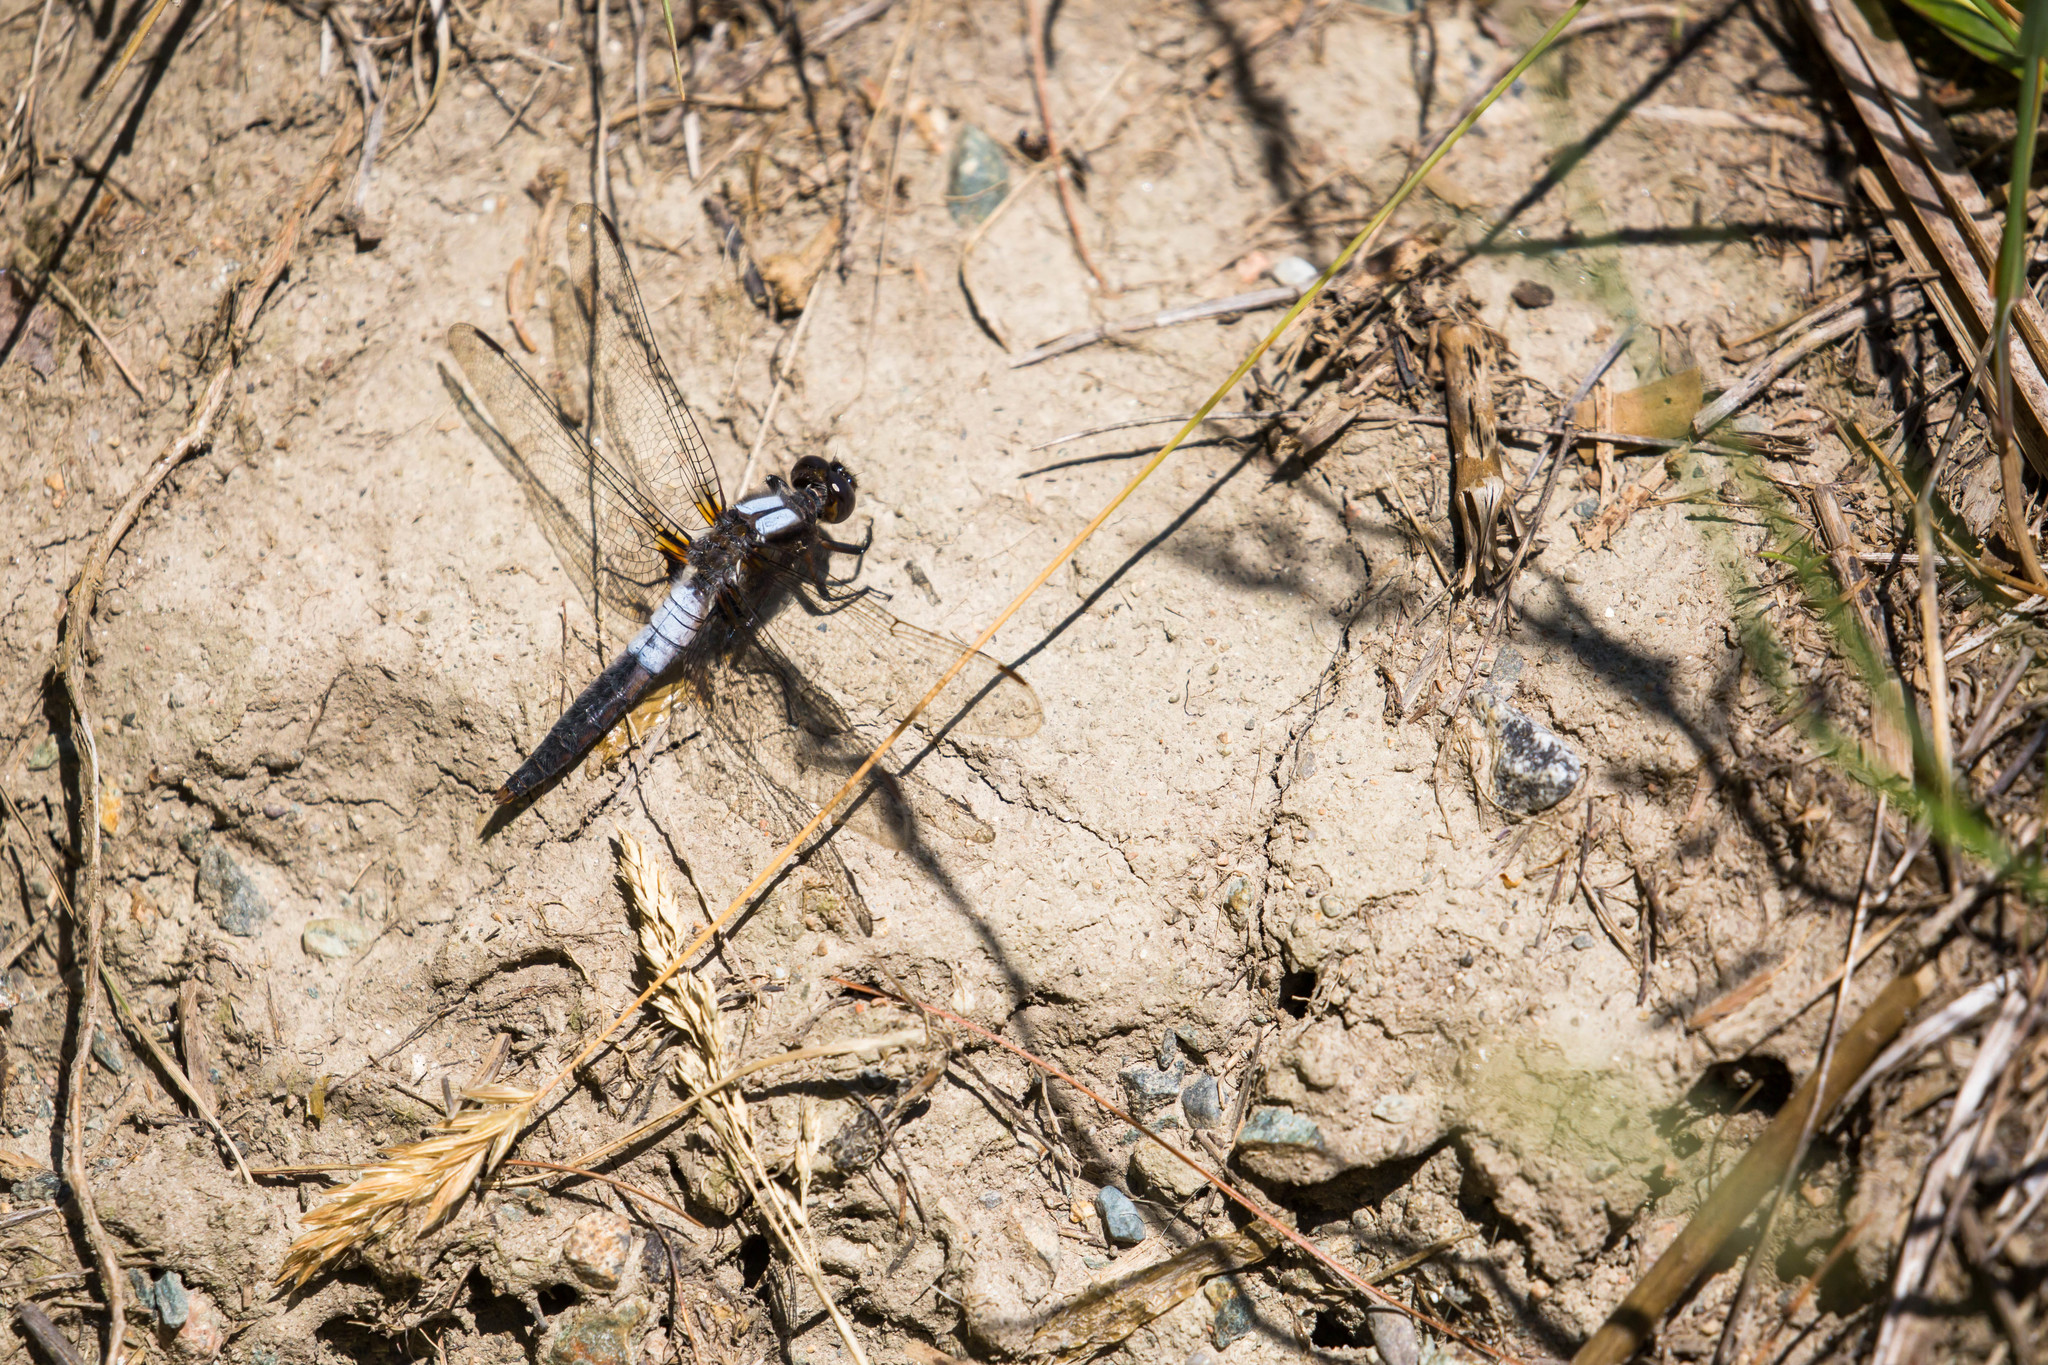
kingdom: Animalia
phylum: Arthropoda
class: Insecta
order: Odonata
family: Libellulidae
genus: Ladona
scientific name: Ladona julia
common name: Chalk-fronted corporal
